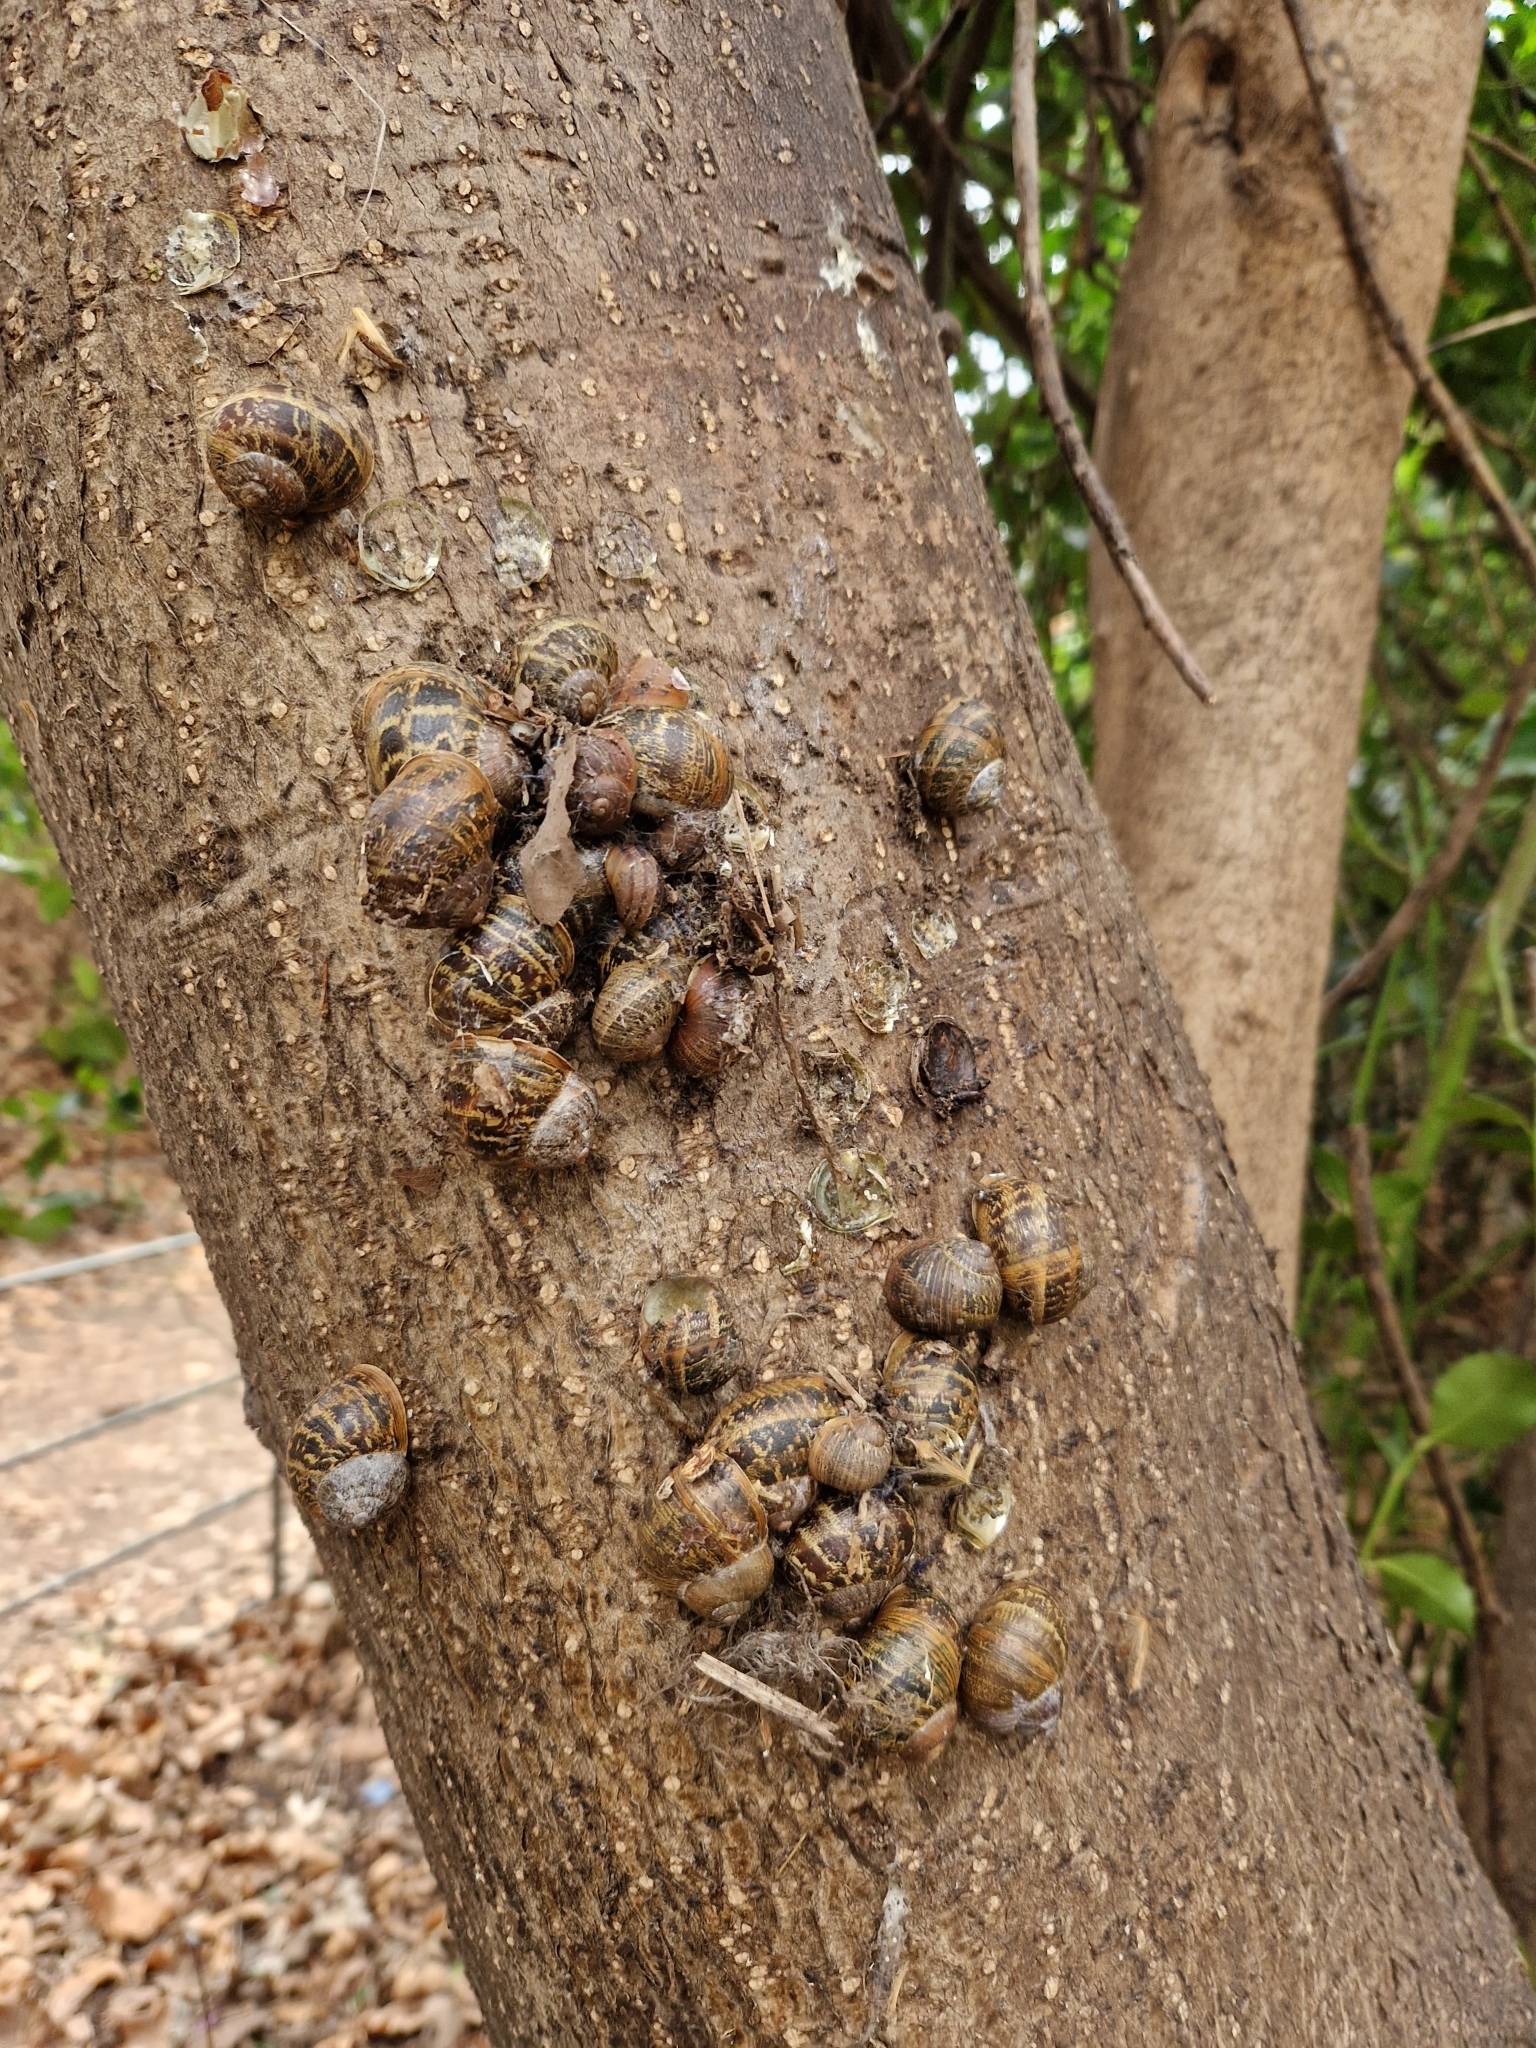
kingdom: Animalia
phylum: Mollusca
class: Gastropoda
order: Stylommatophora
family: Helicidae
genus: Cornu
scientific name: Cornu aspersum
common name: Brown garden snail
